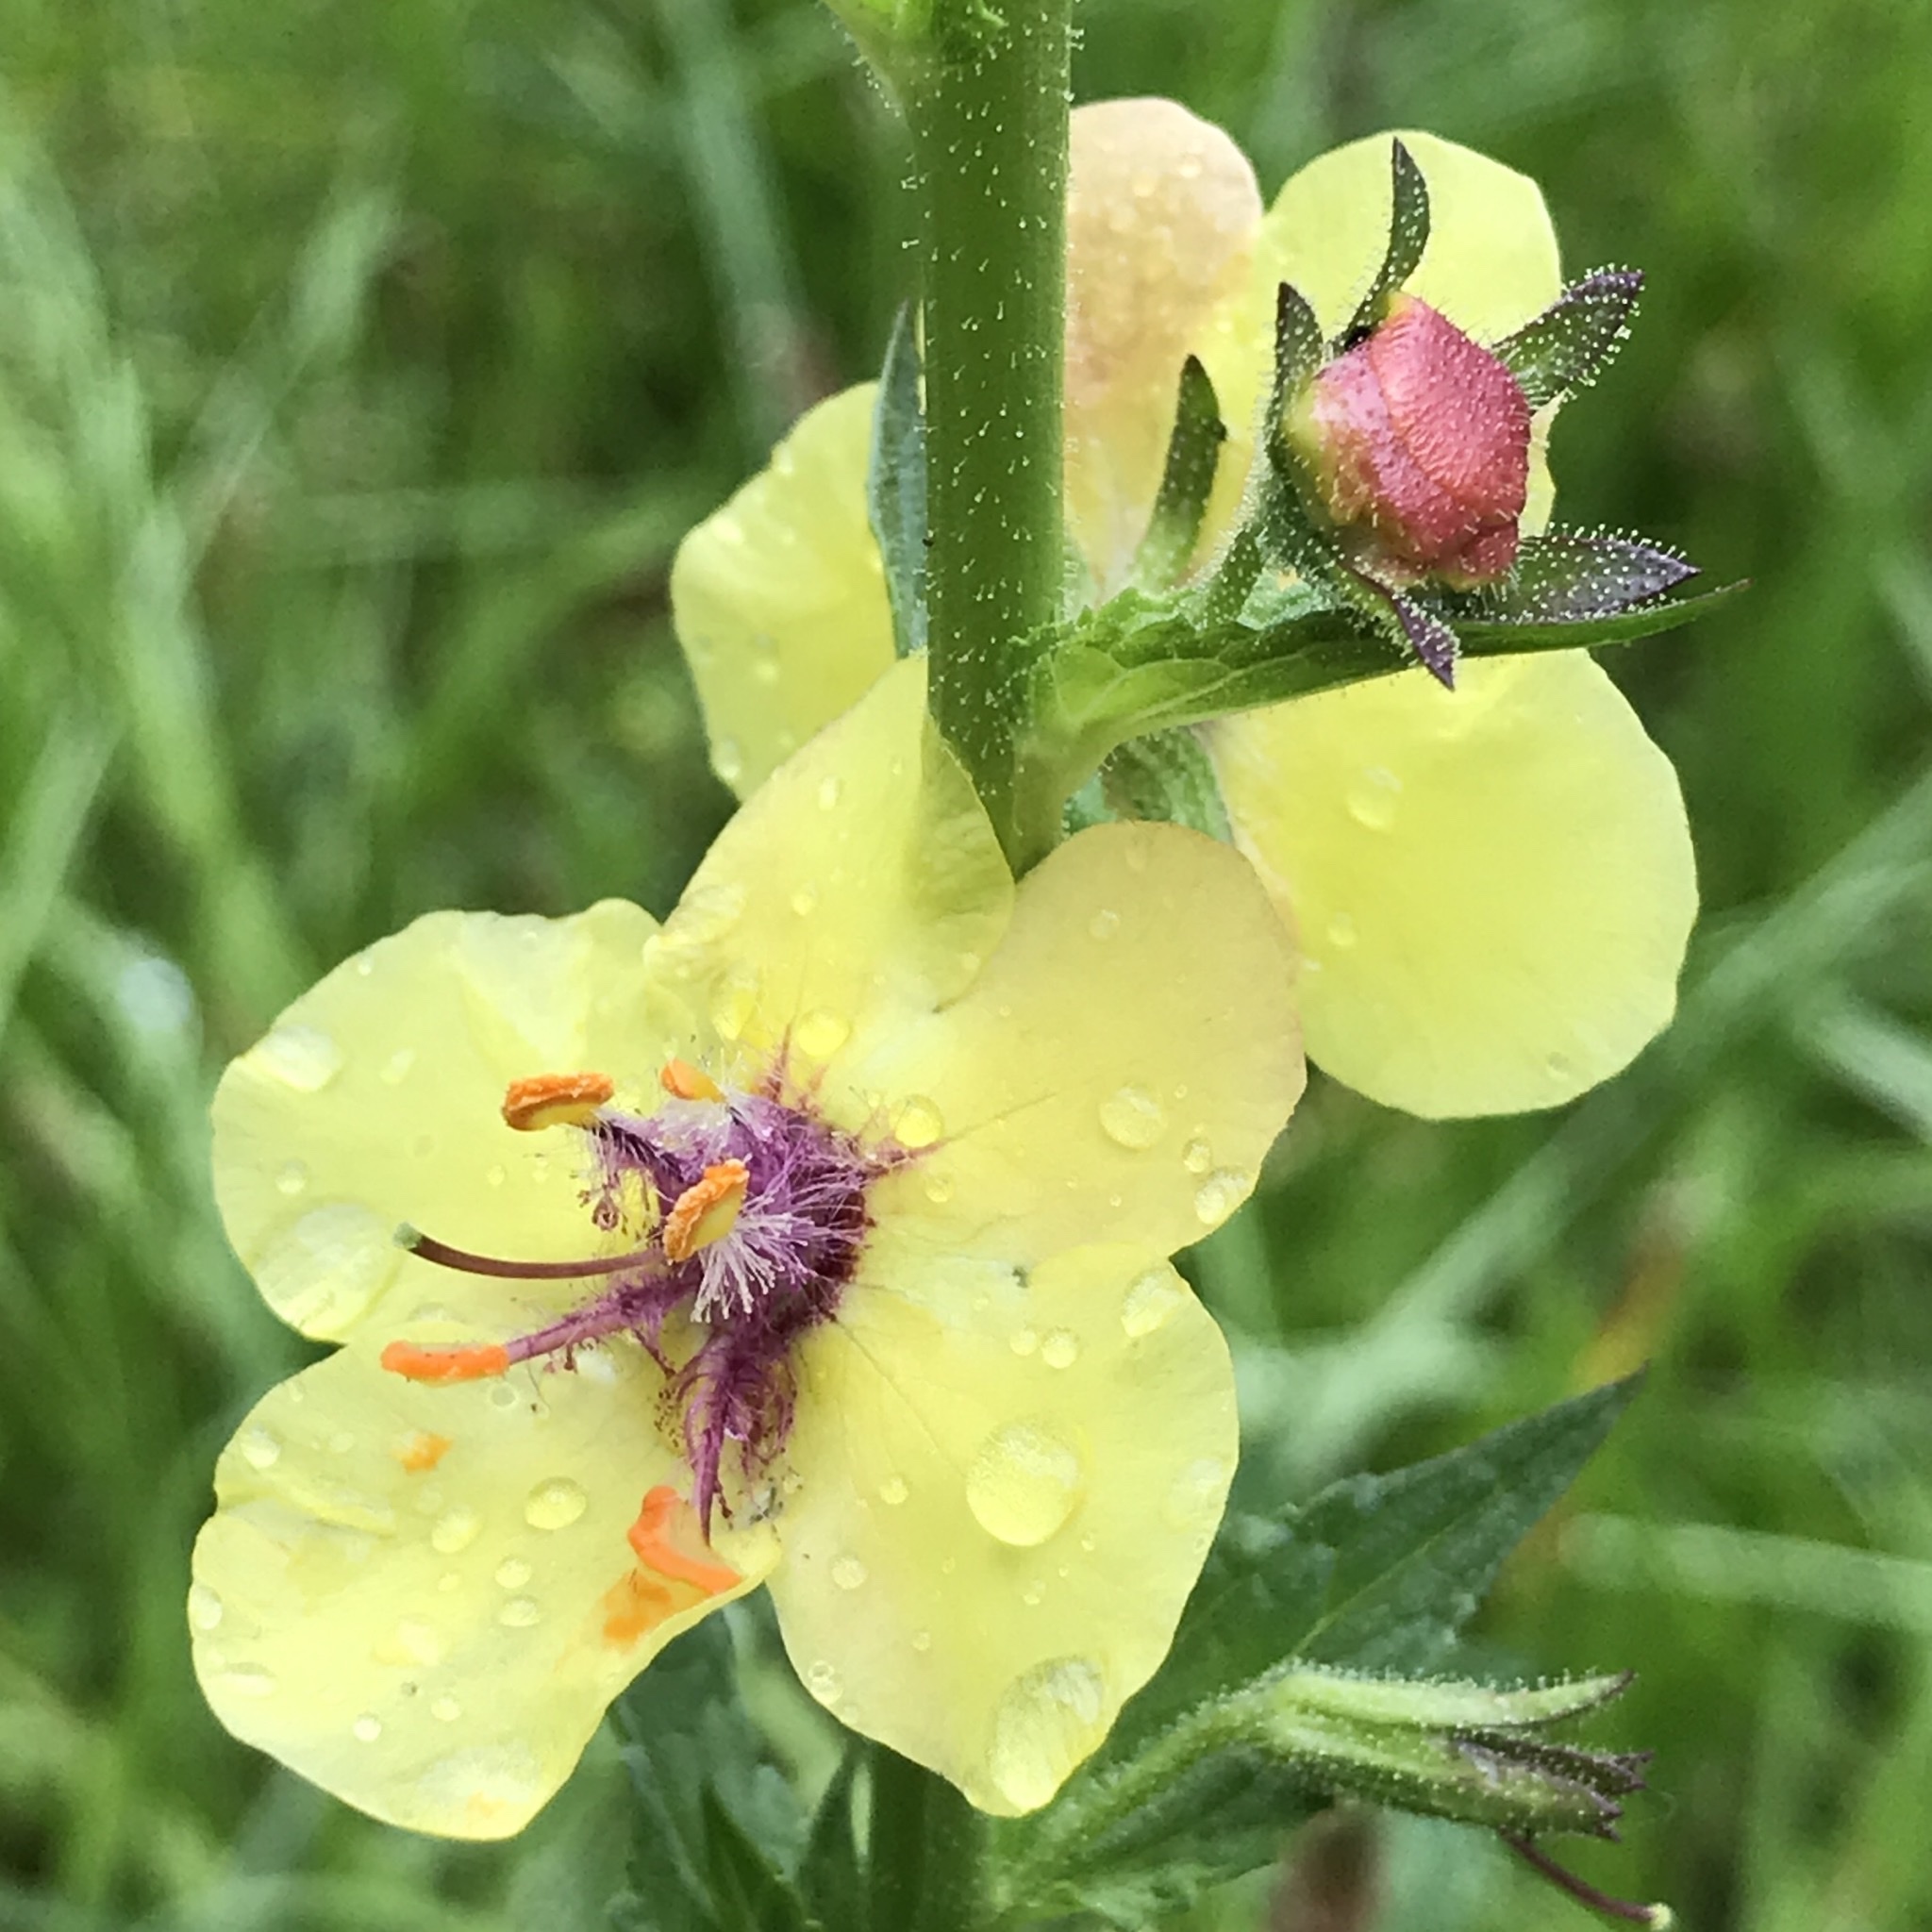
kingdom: Plantae
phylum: Tracheophyta
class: Magnoliopsida
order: Lamiales
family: Scrophulariaceae
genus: Verbascum
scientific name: Verbascum blattaria
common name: Moth mullein
